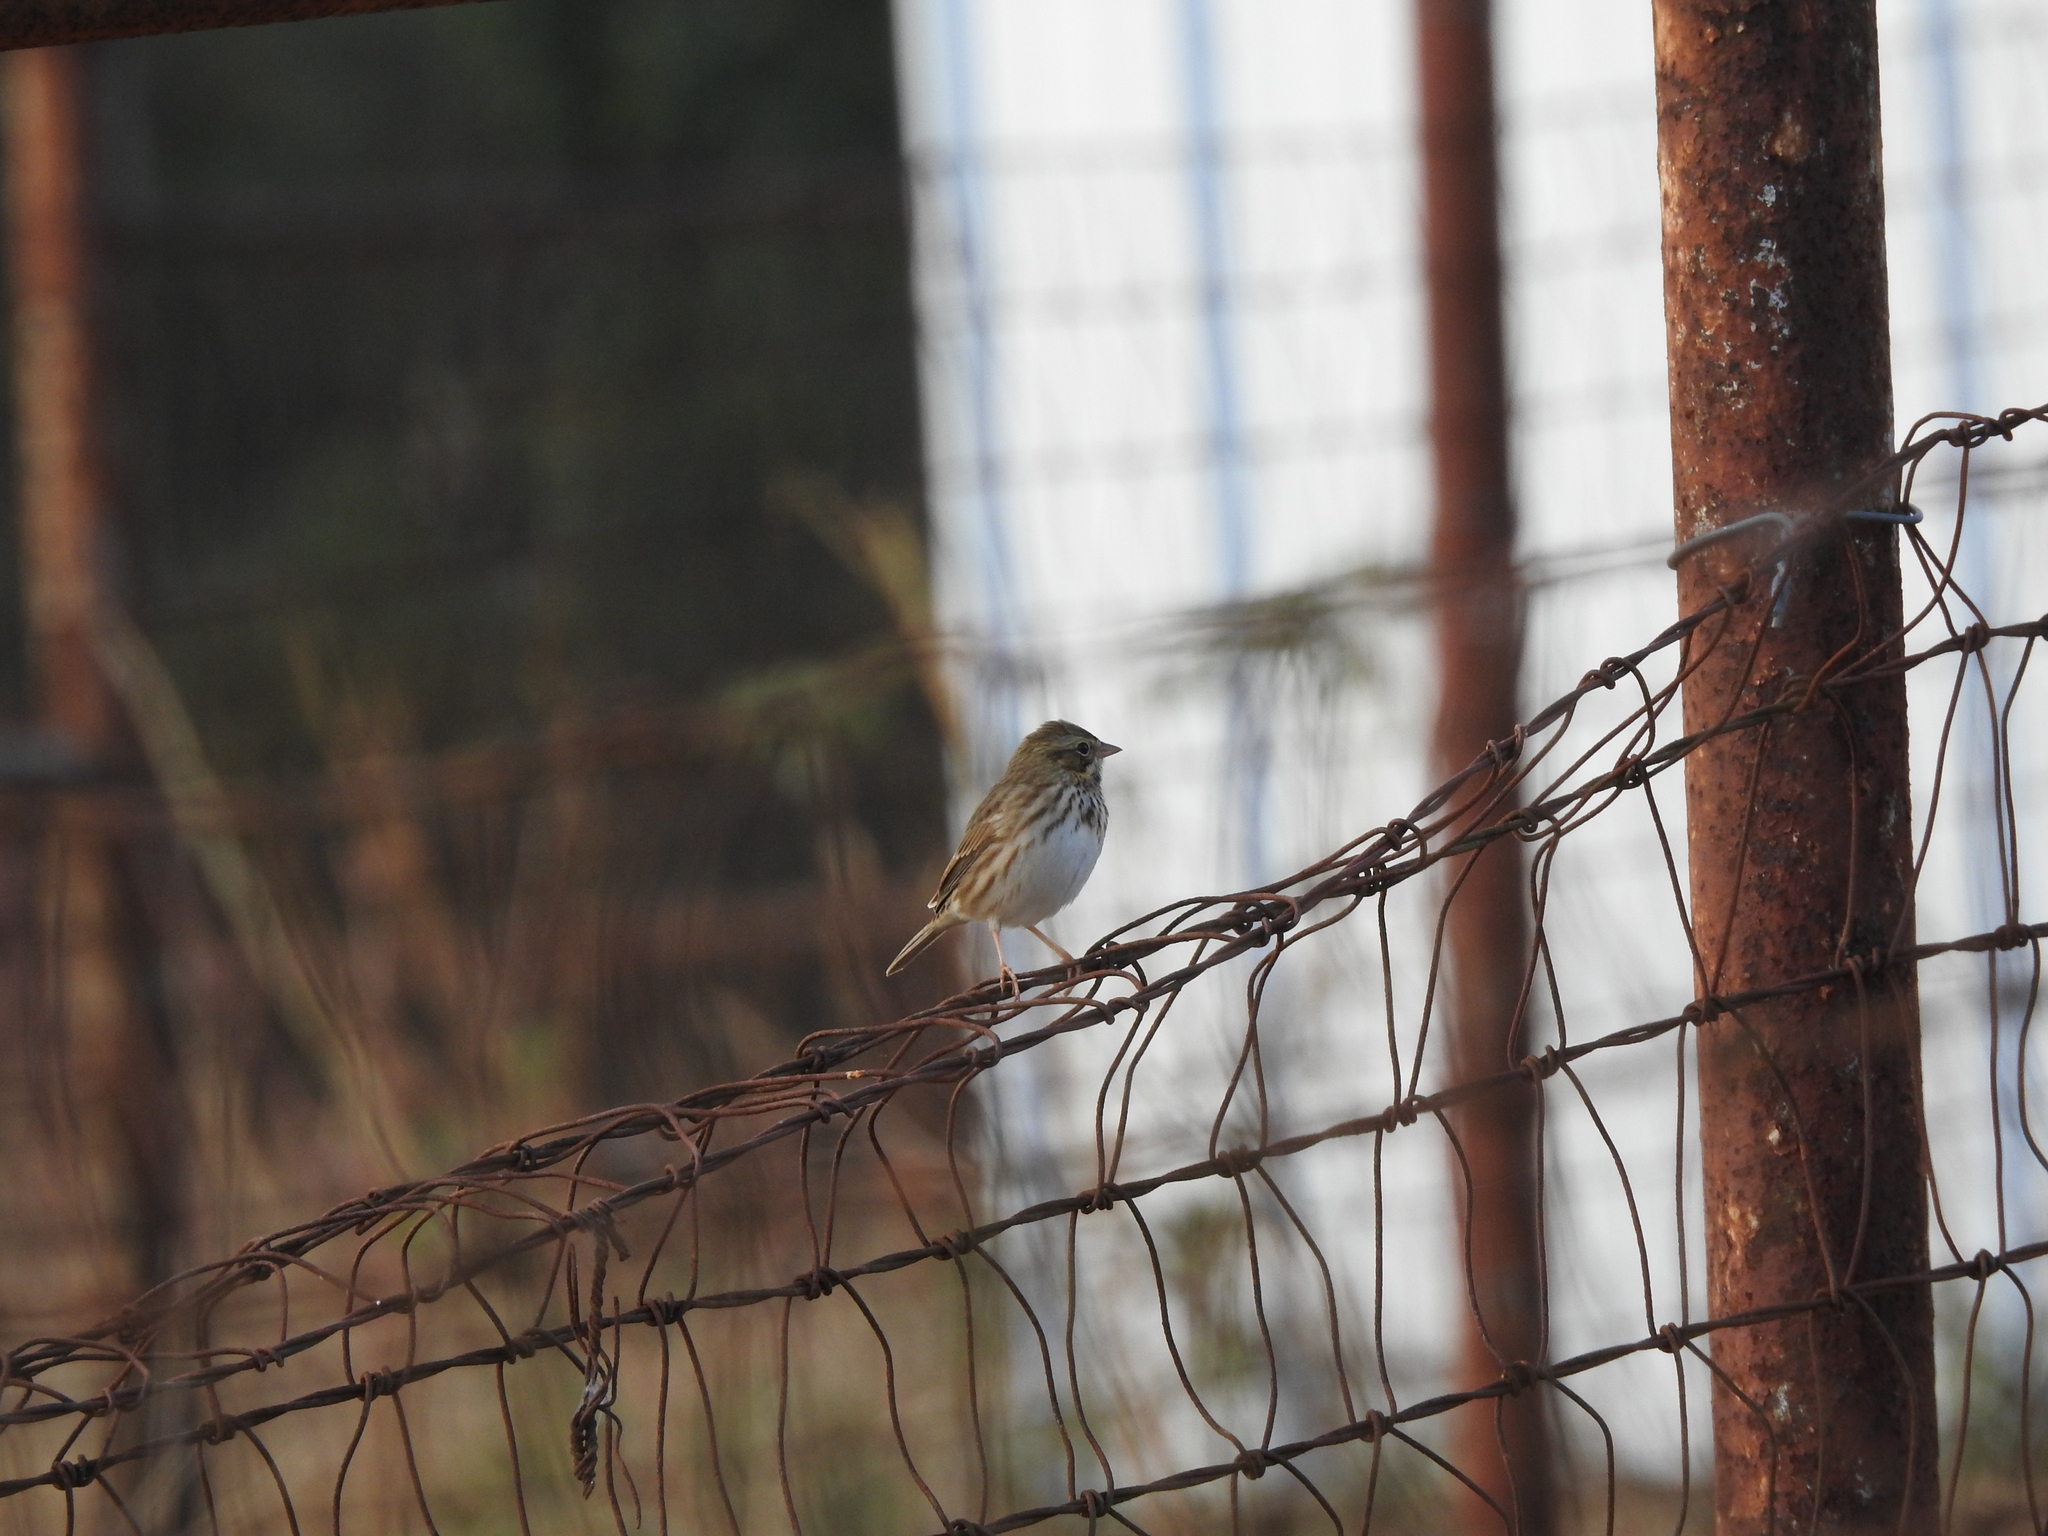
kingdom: Animalia
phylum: Chordata
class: Aves
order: Passeriformes
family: Passerellidae
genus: Melospiza
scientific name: Melospiza melodia
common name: Song sparrow
